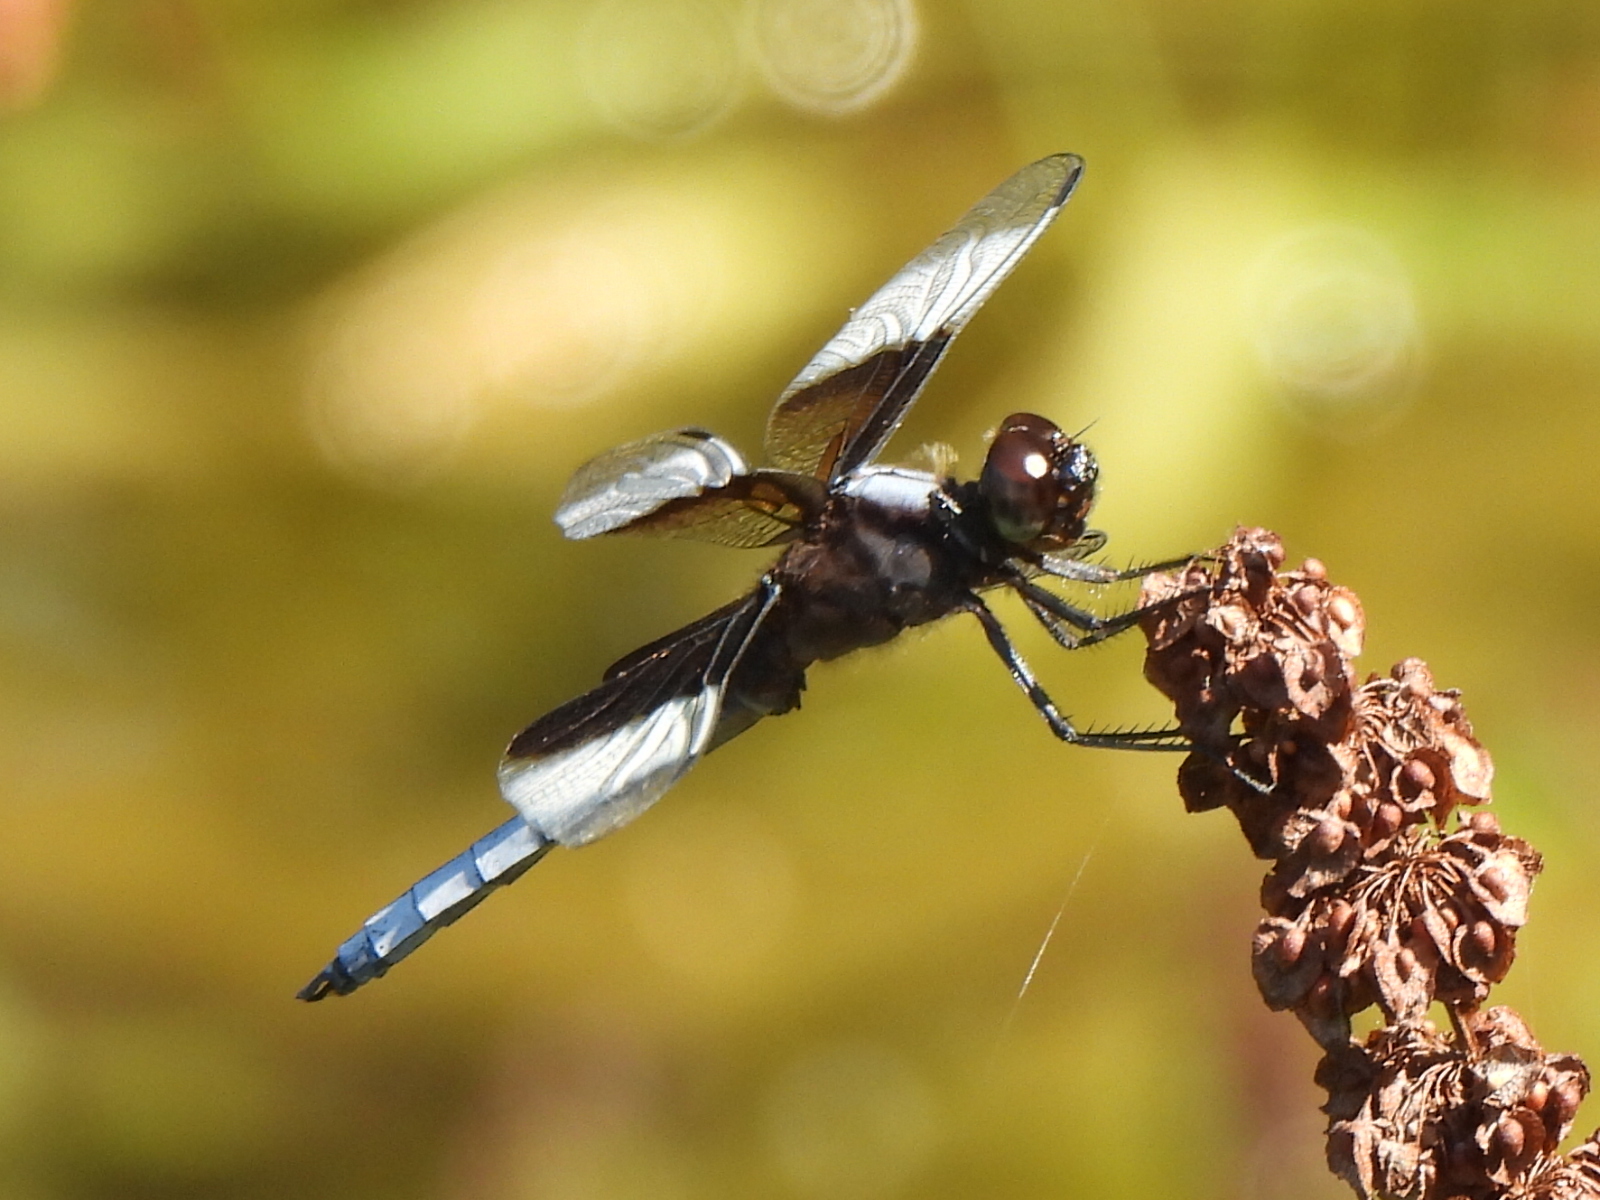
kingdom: Animalia
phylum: Arthropoda
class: Insecta
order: Odonata
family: Libellulidae
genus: Libellula
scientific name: Libellula luctuosa
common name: Widow skimmer
